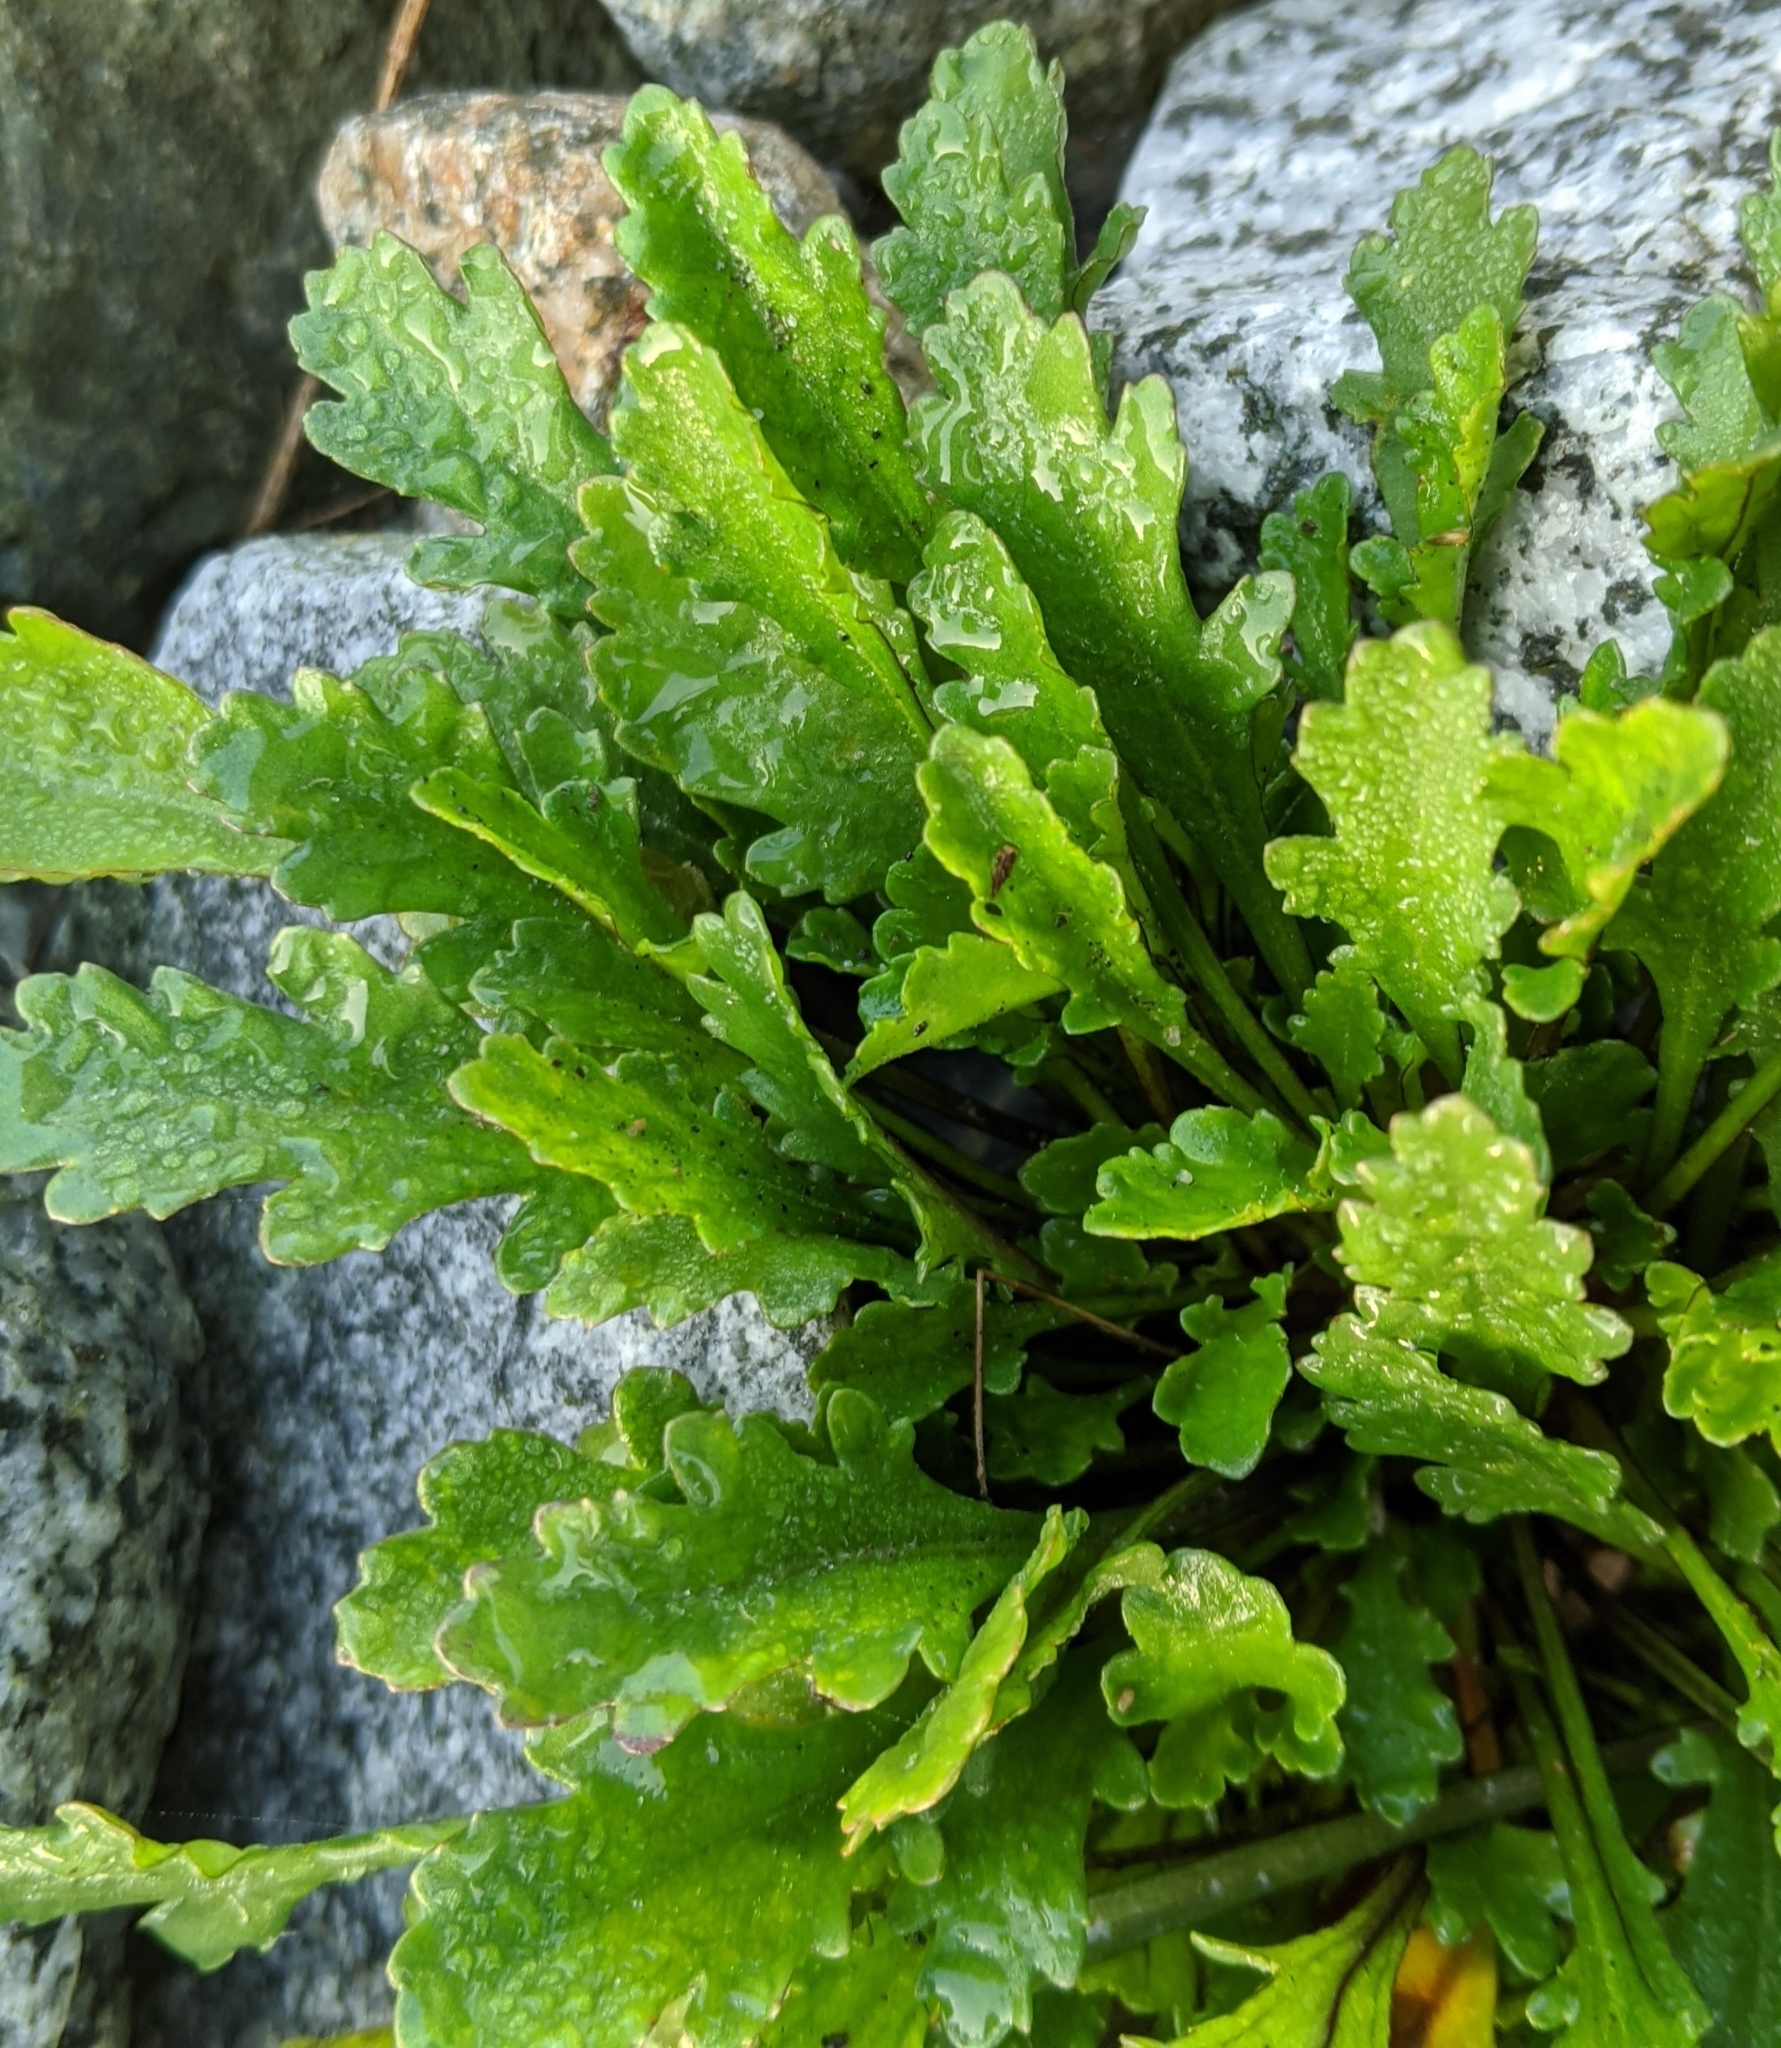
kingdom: Plantae
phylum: Tracheophyta
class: Magnoliopsida
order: Asterales
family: Asteraceae
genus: Leucanthemum
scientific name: Leucanthemum vulgare
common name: Oxeye daisy
